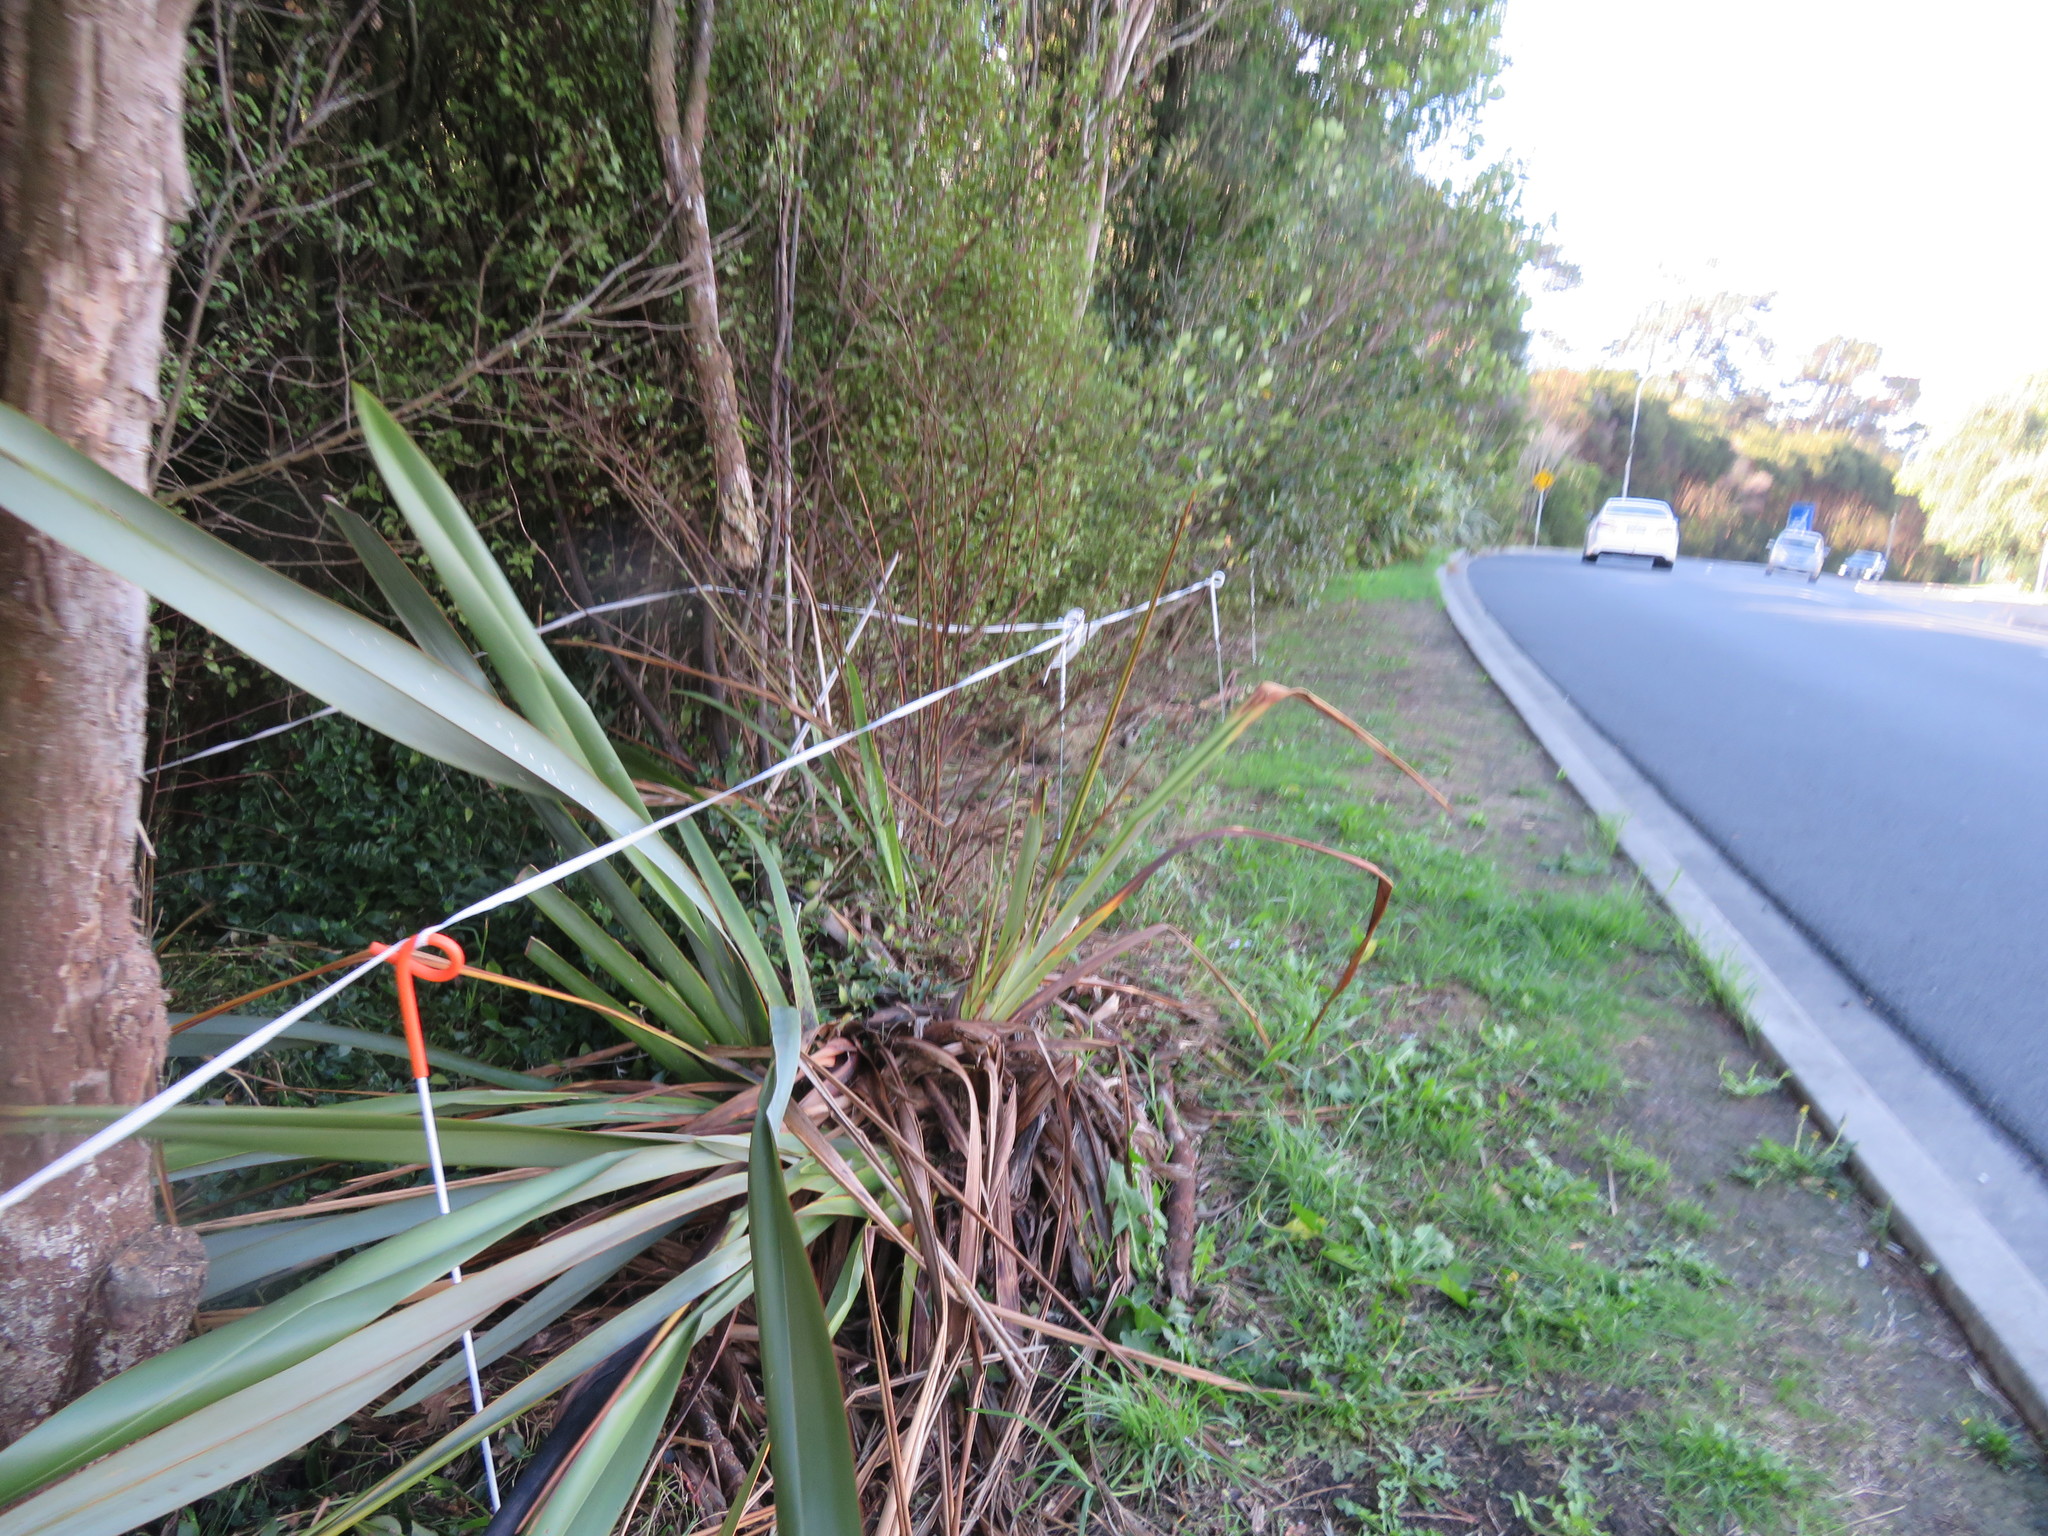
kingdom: Plantae
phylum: Tracheophyta
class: Liliopsida
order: Asparagales
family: Asphodelaceae
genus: Phormium
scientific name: Phormium tenax
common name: New zealand flax
